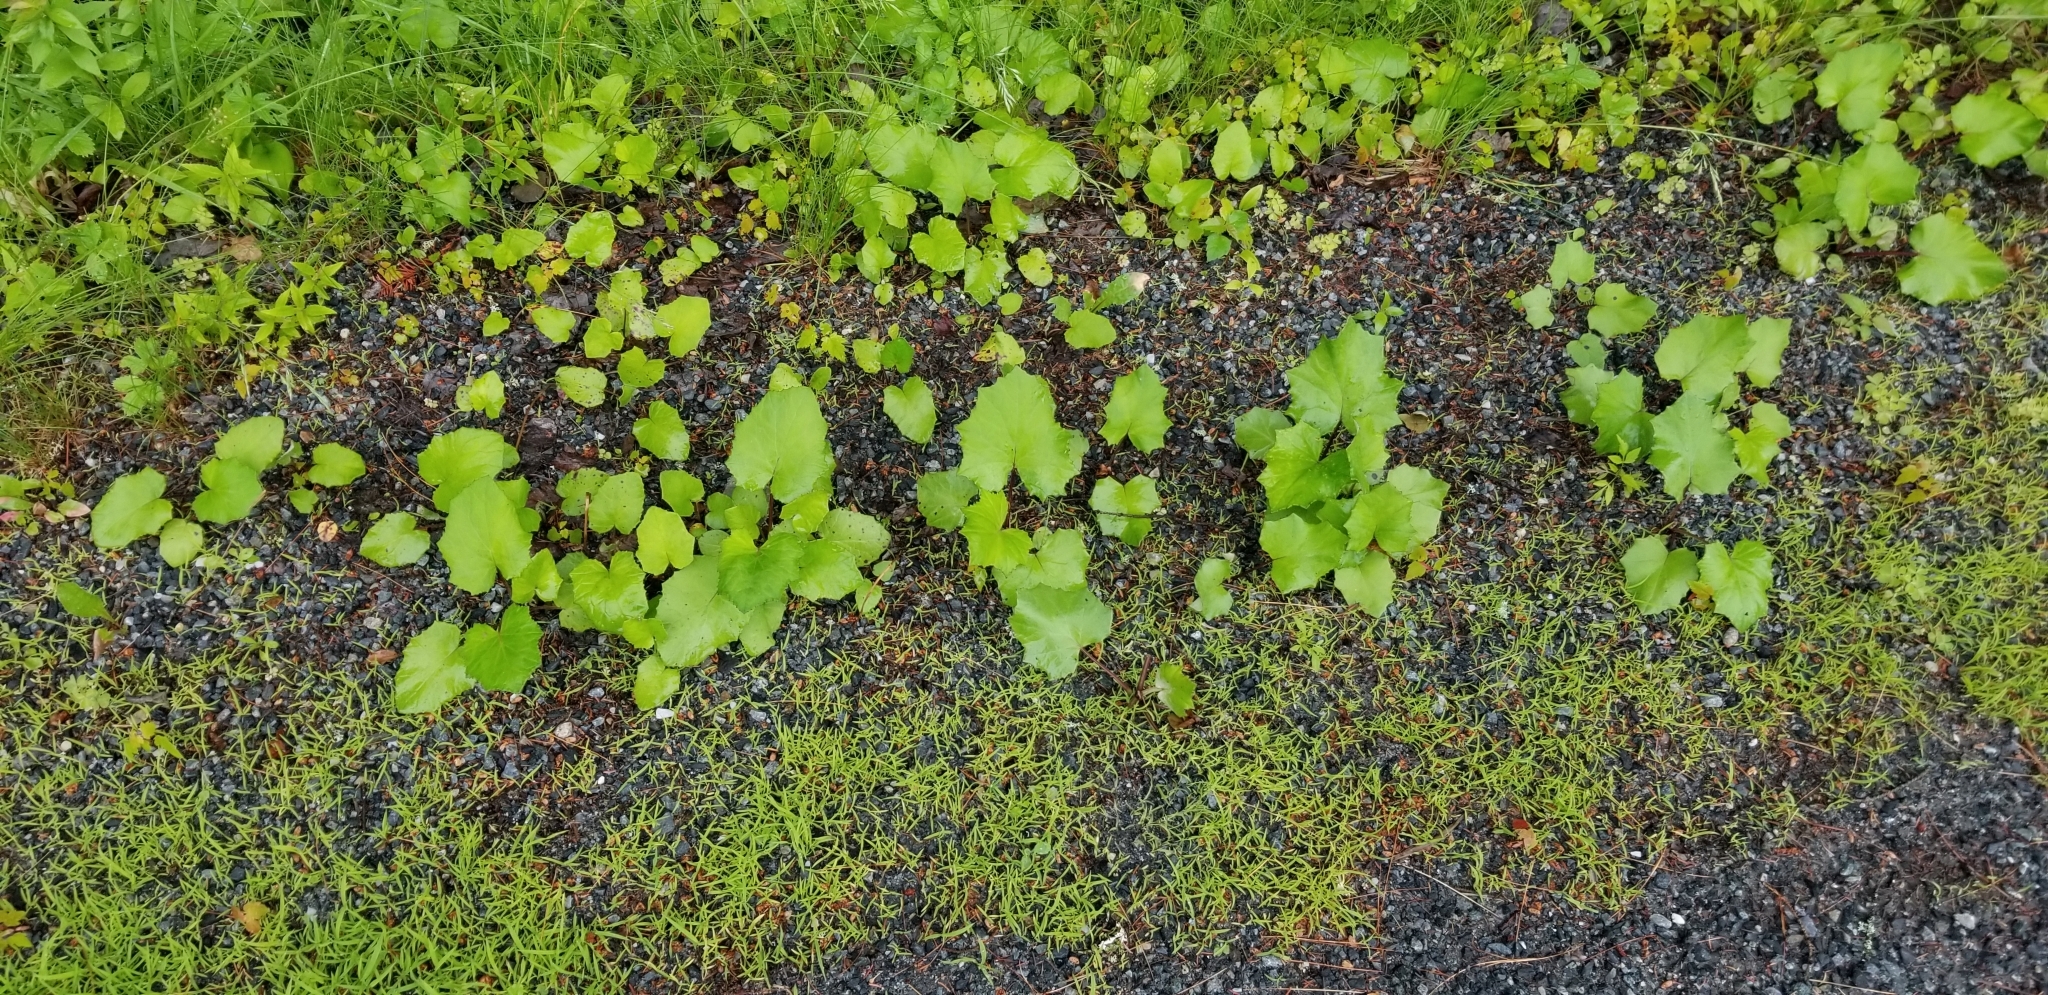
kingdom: Plantae
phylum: Tracheophyta
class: Magnoliopsida
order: Asterales
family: Asteraceae
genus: Tussilago
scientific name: Tussilago farfara
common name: Coltsfoot
